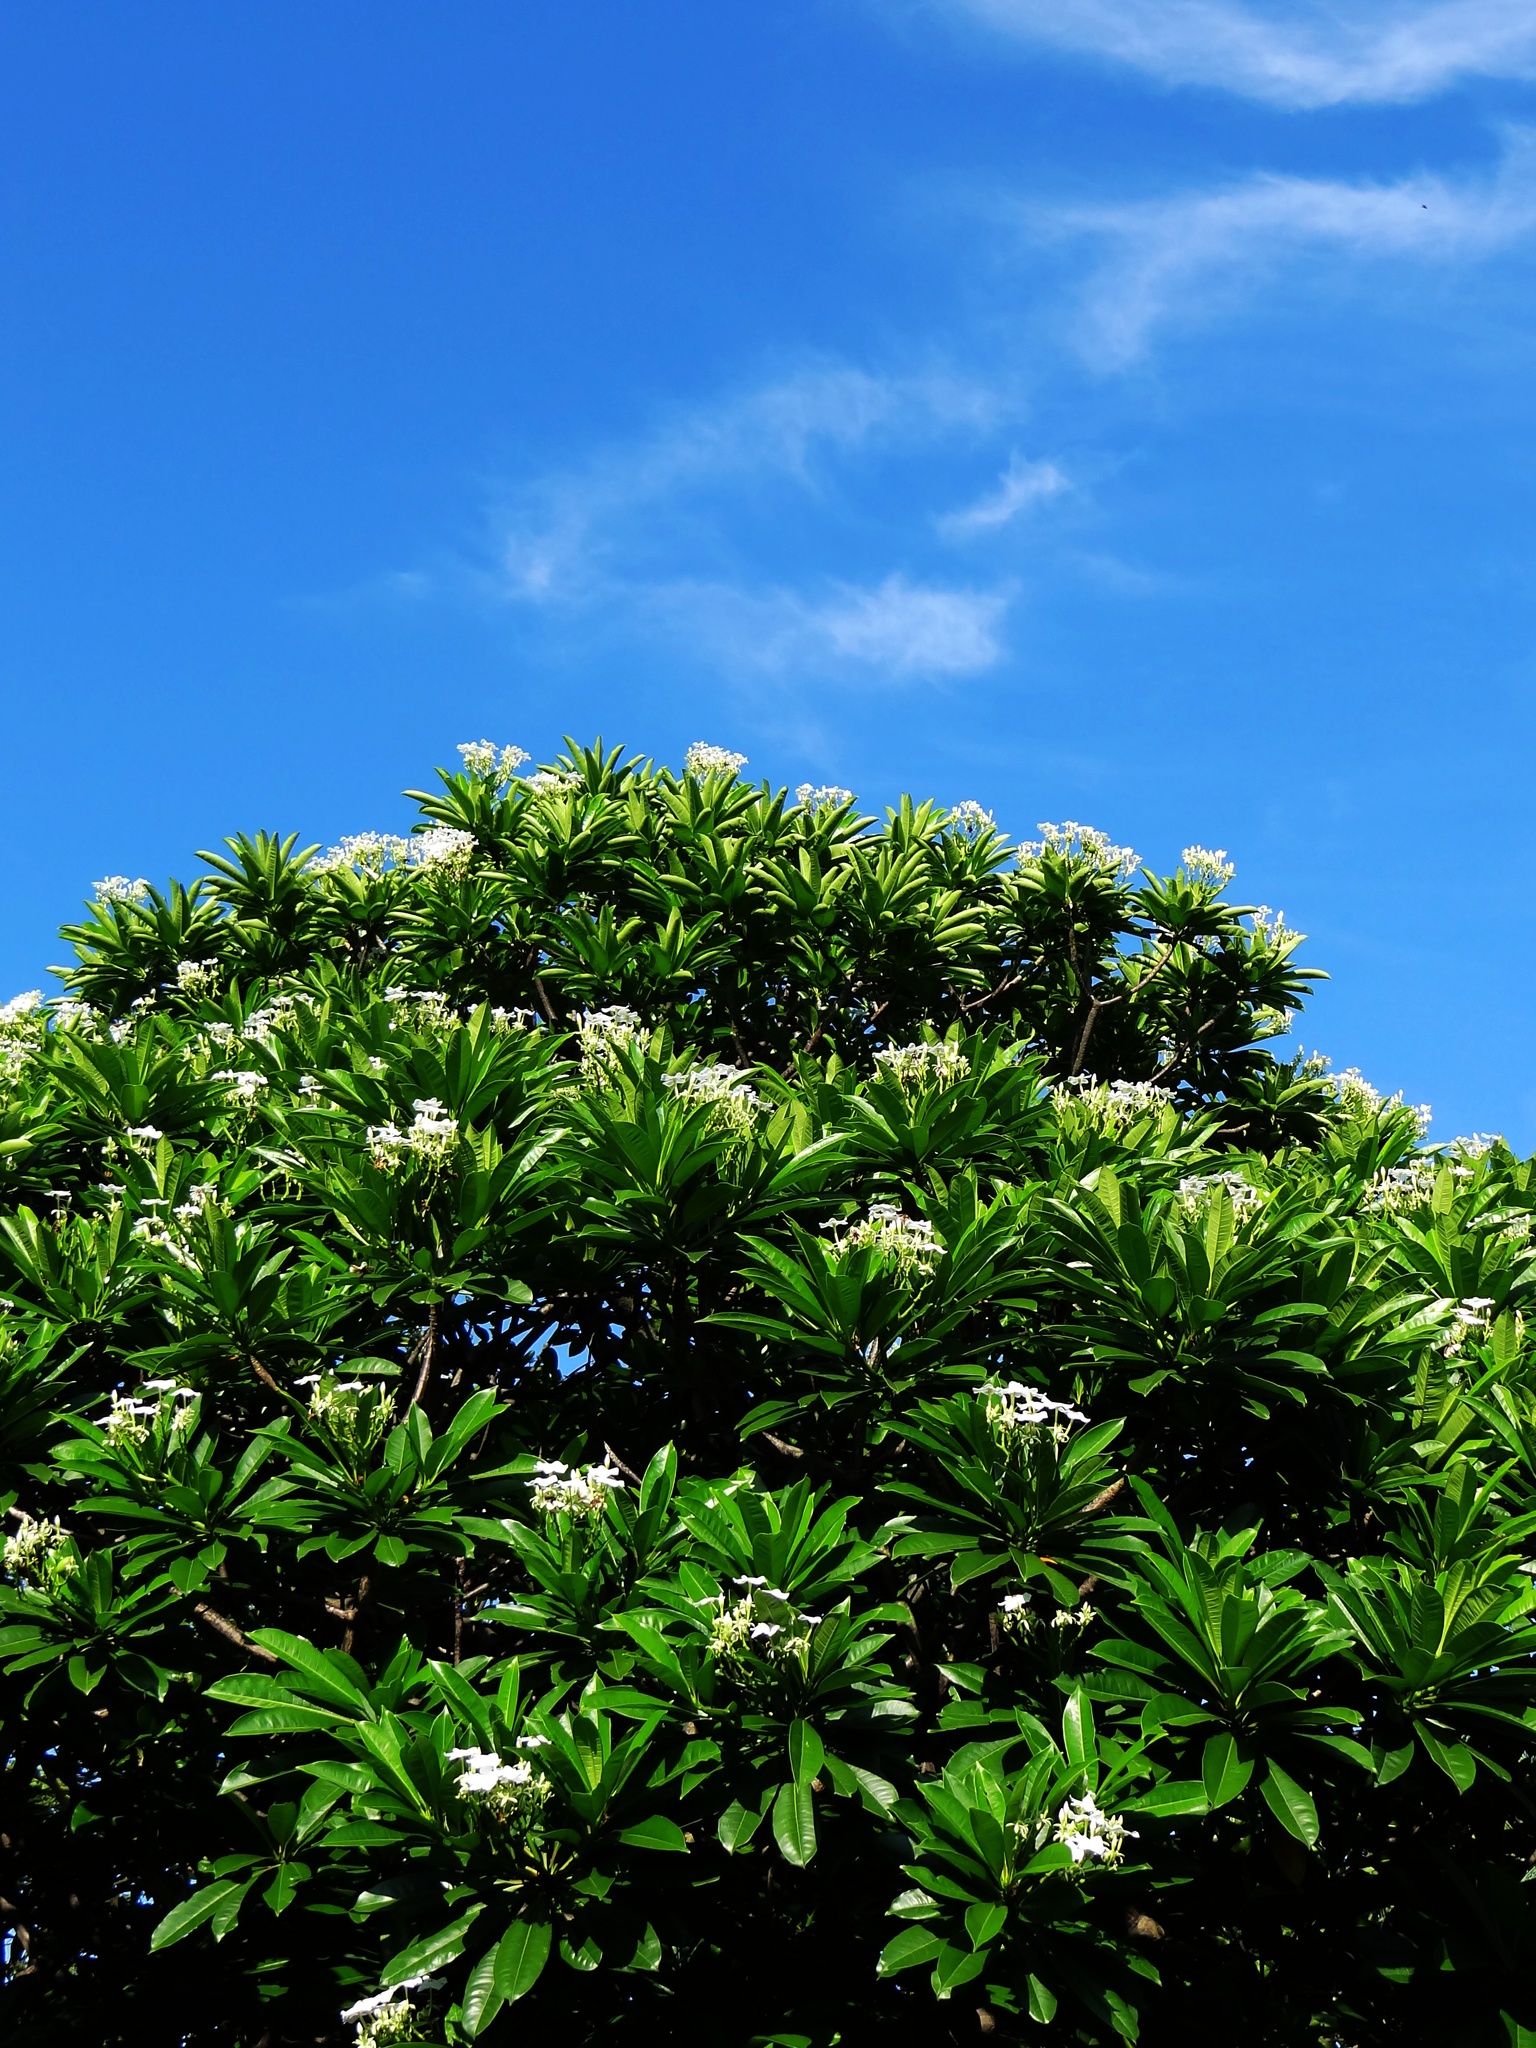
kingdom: Plantae
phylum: Tracheophyta
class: Magnoliopsida
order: Gentianales
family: Apocynaceae
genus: Cerbera
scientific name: Cerbera manghas
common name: Reva
